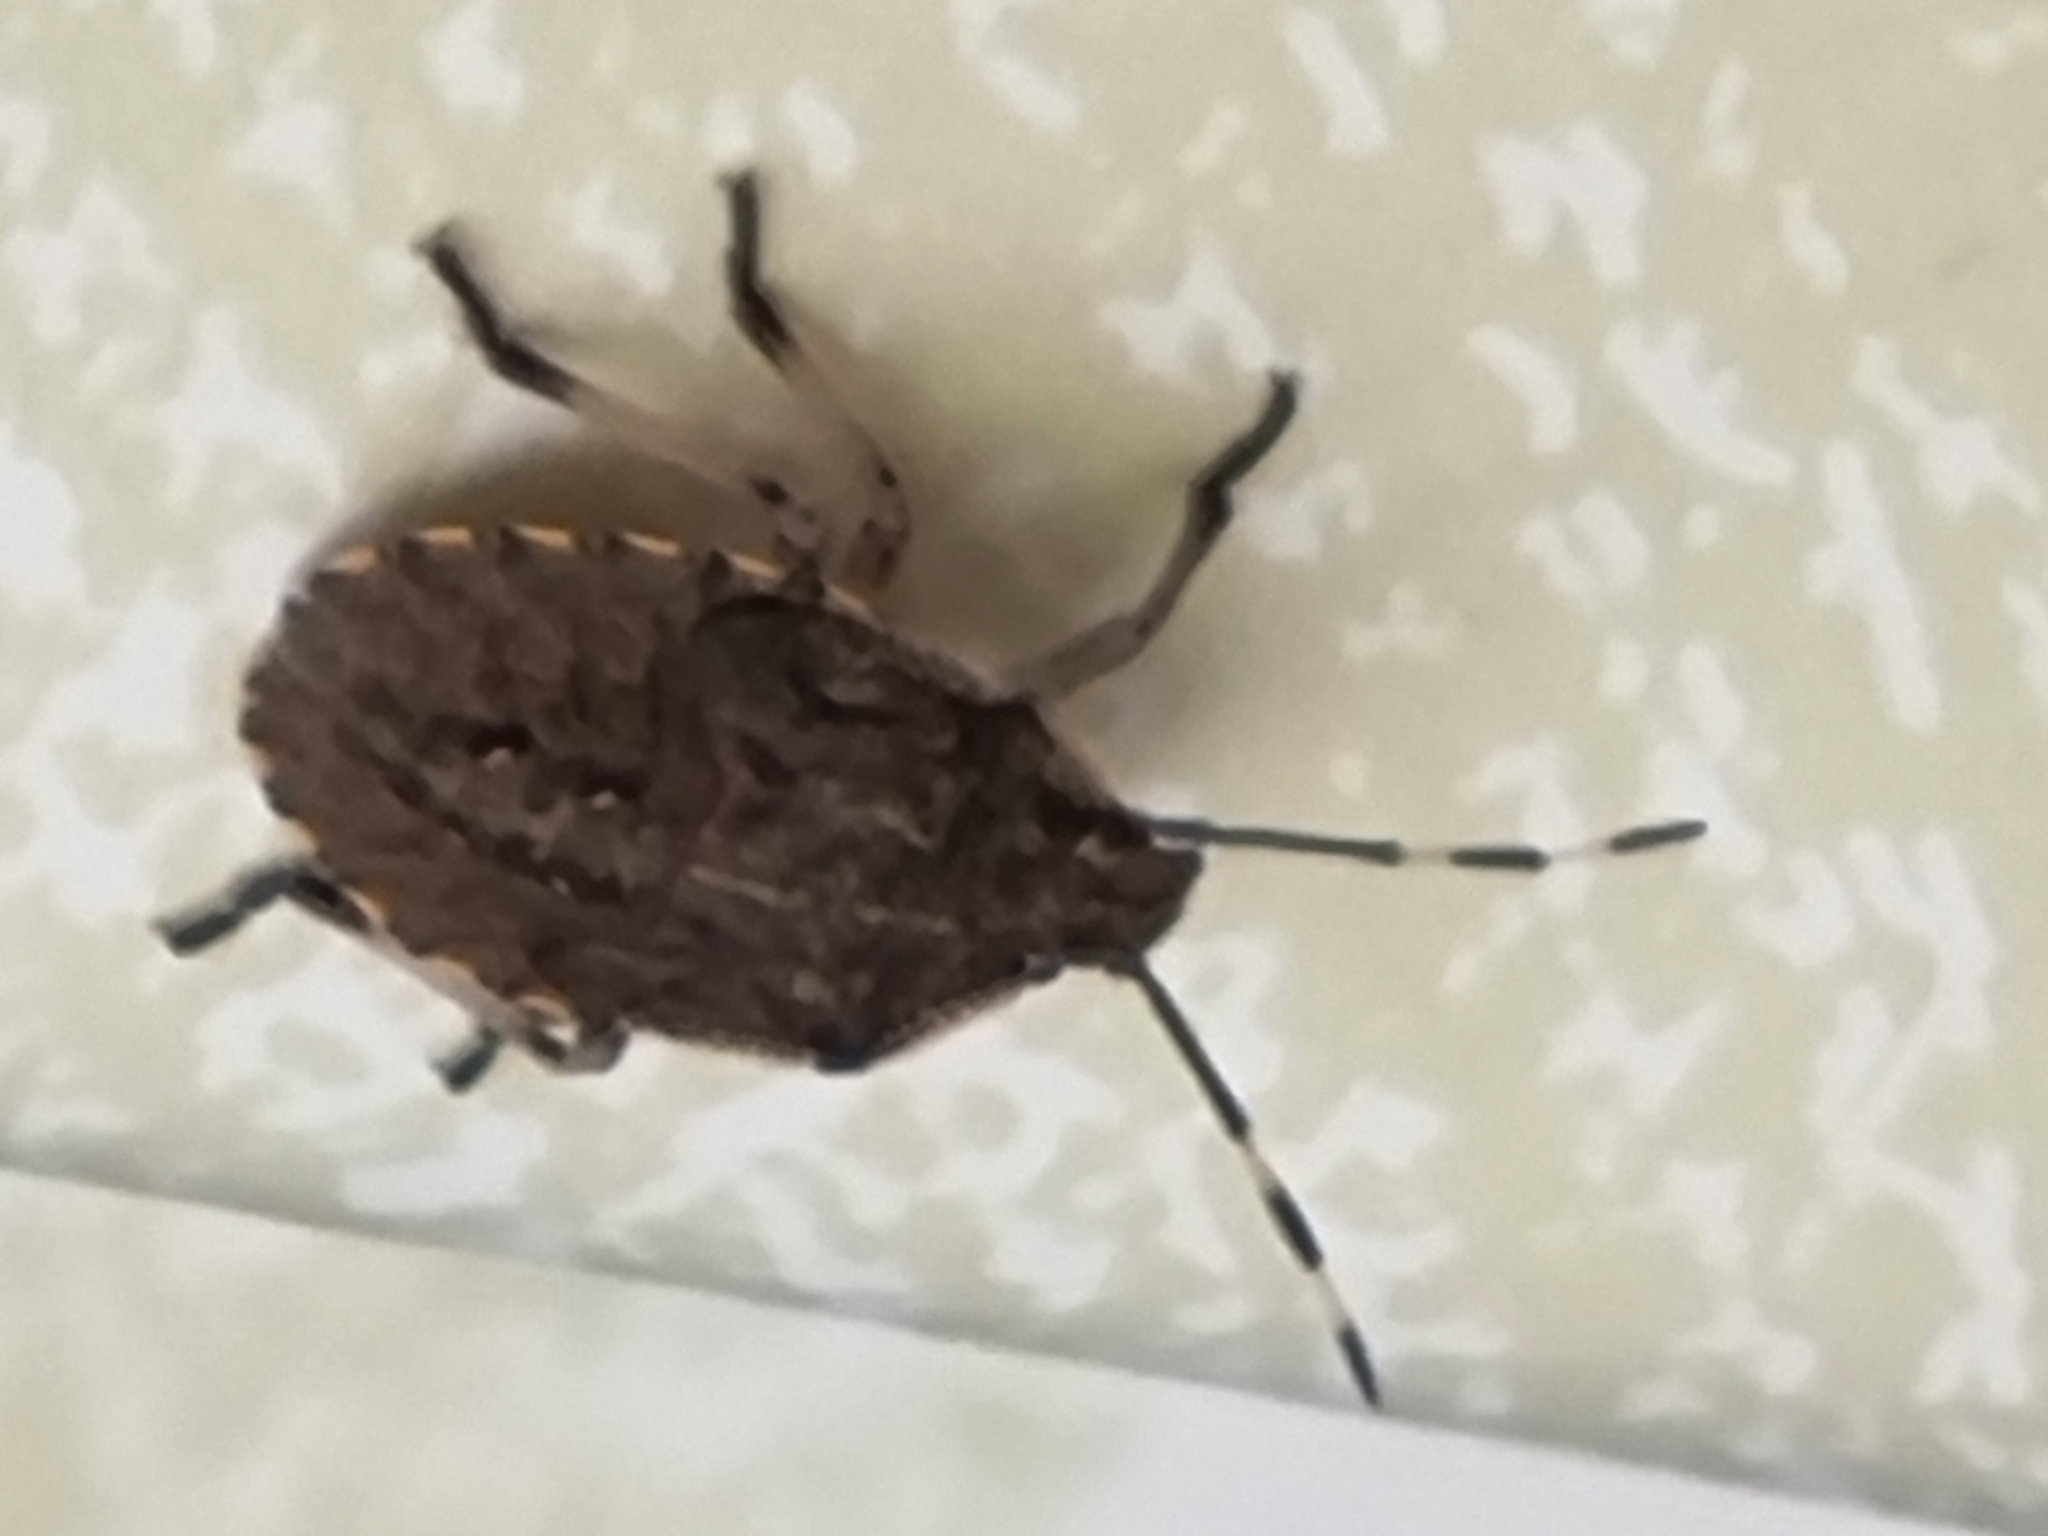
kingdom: Animalia
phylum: Arthropoda
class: Insecta
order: Hemiptera
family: Pentatomidae
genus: Rhaphigaster
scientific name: Rhaphigaster nebulosa
